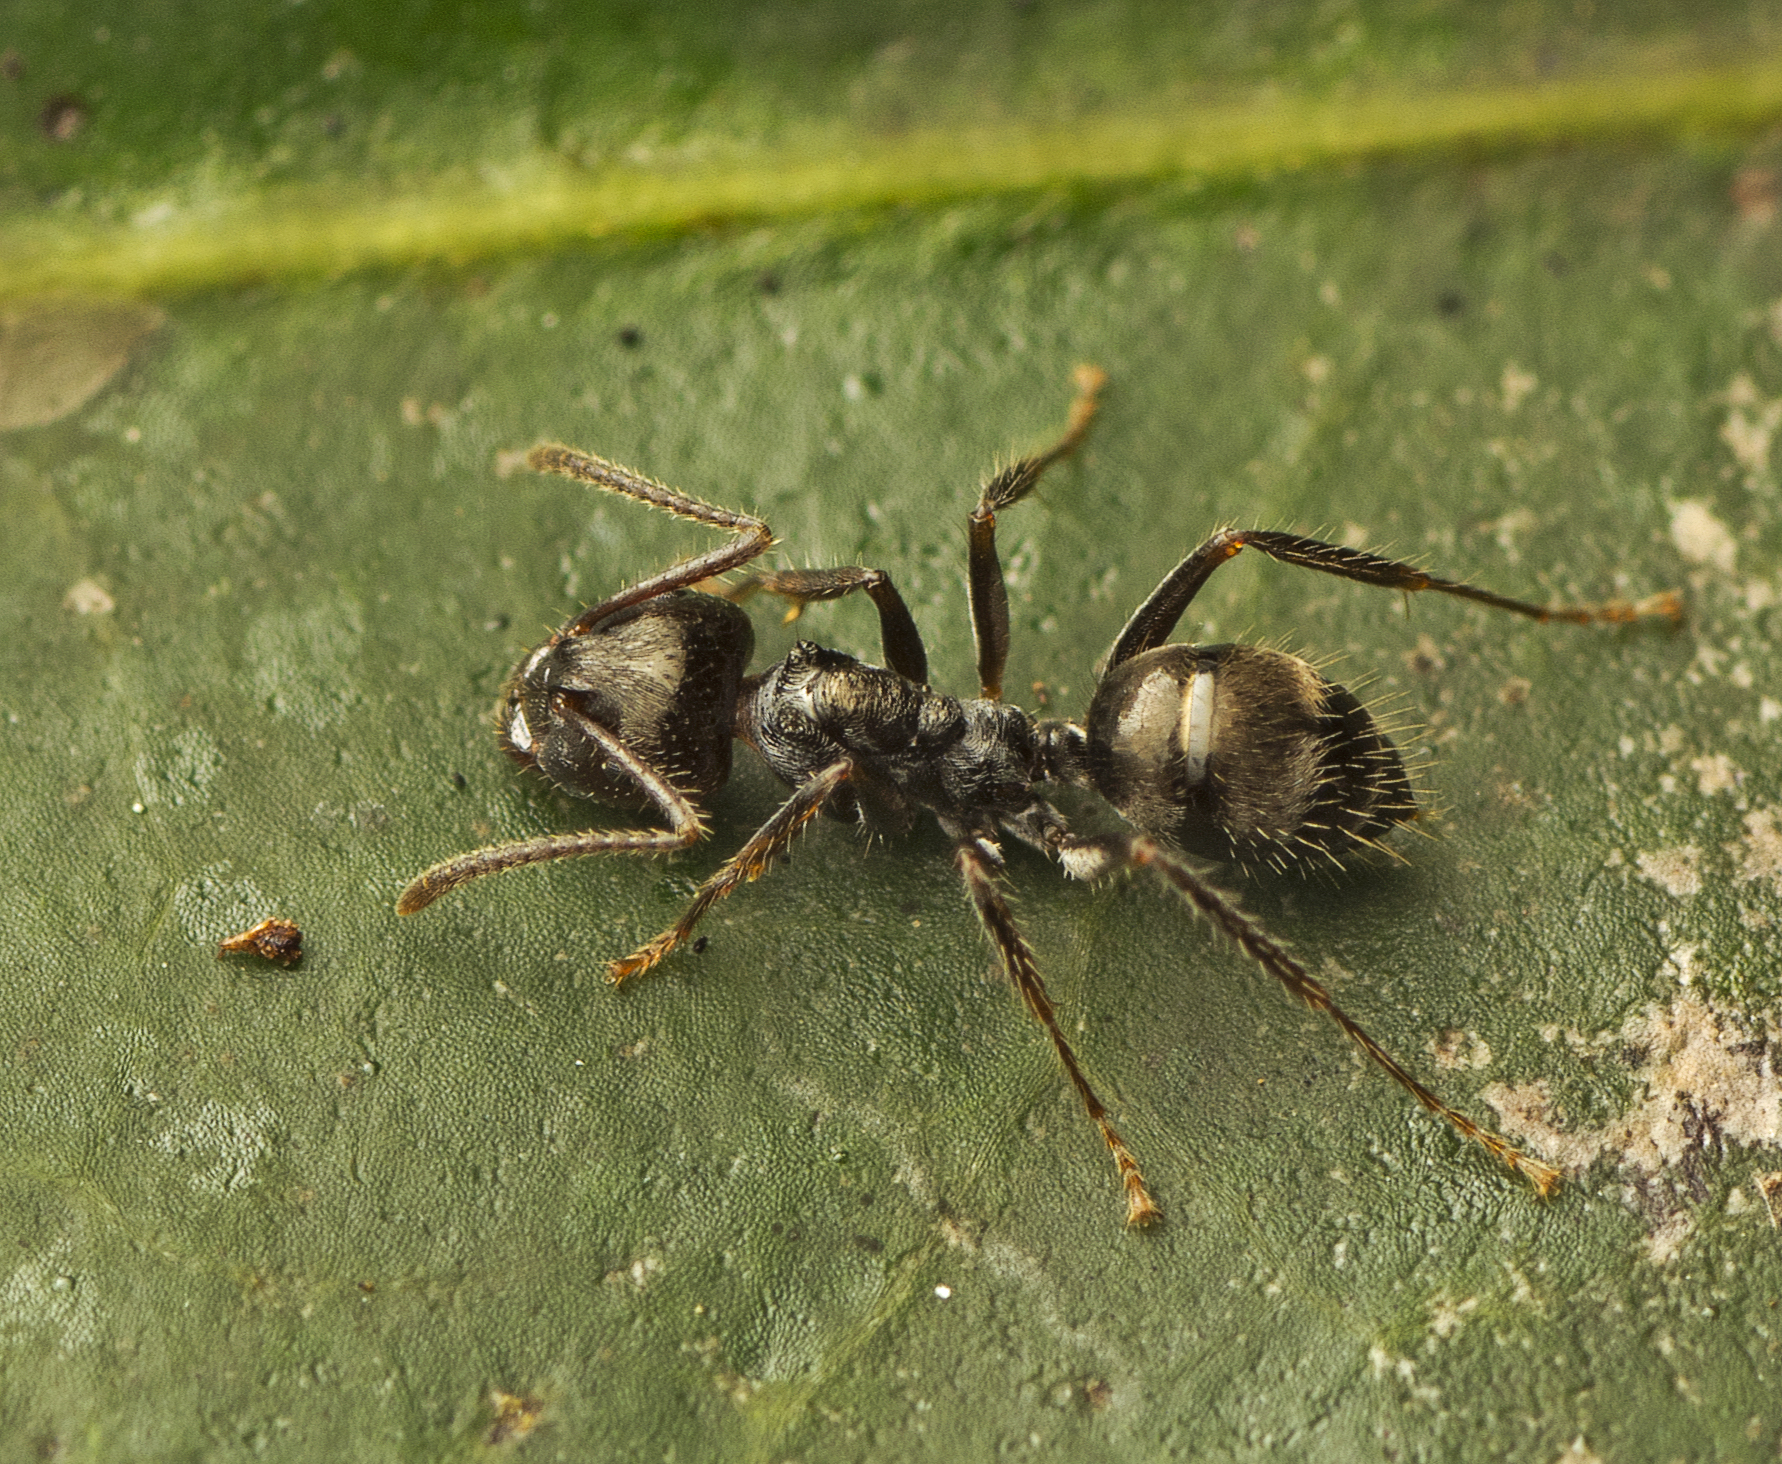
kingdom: Animalia
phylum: Arthropoda
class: Insecta
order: Hymenoptera
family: Formicidae
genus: Notoncus
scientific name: Notoncus capitatus
